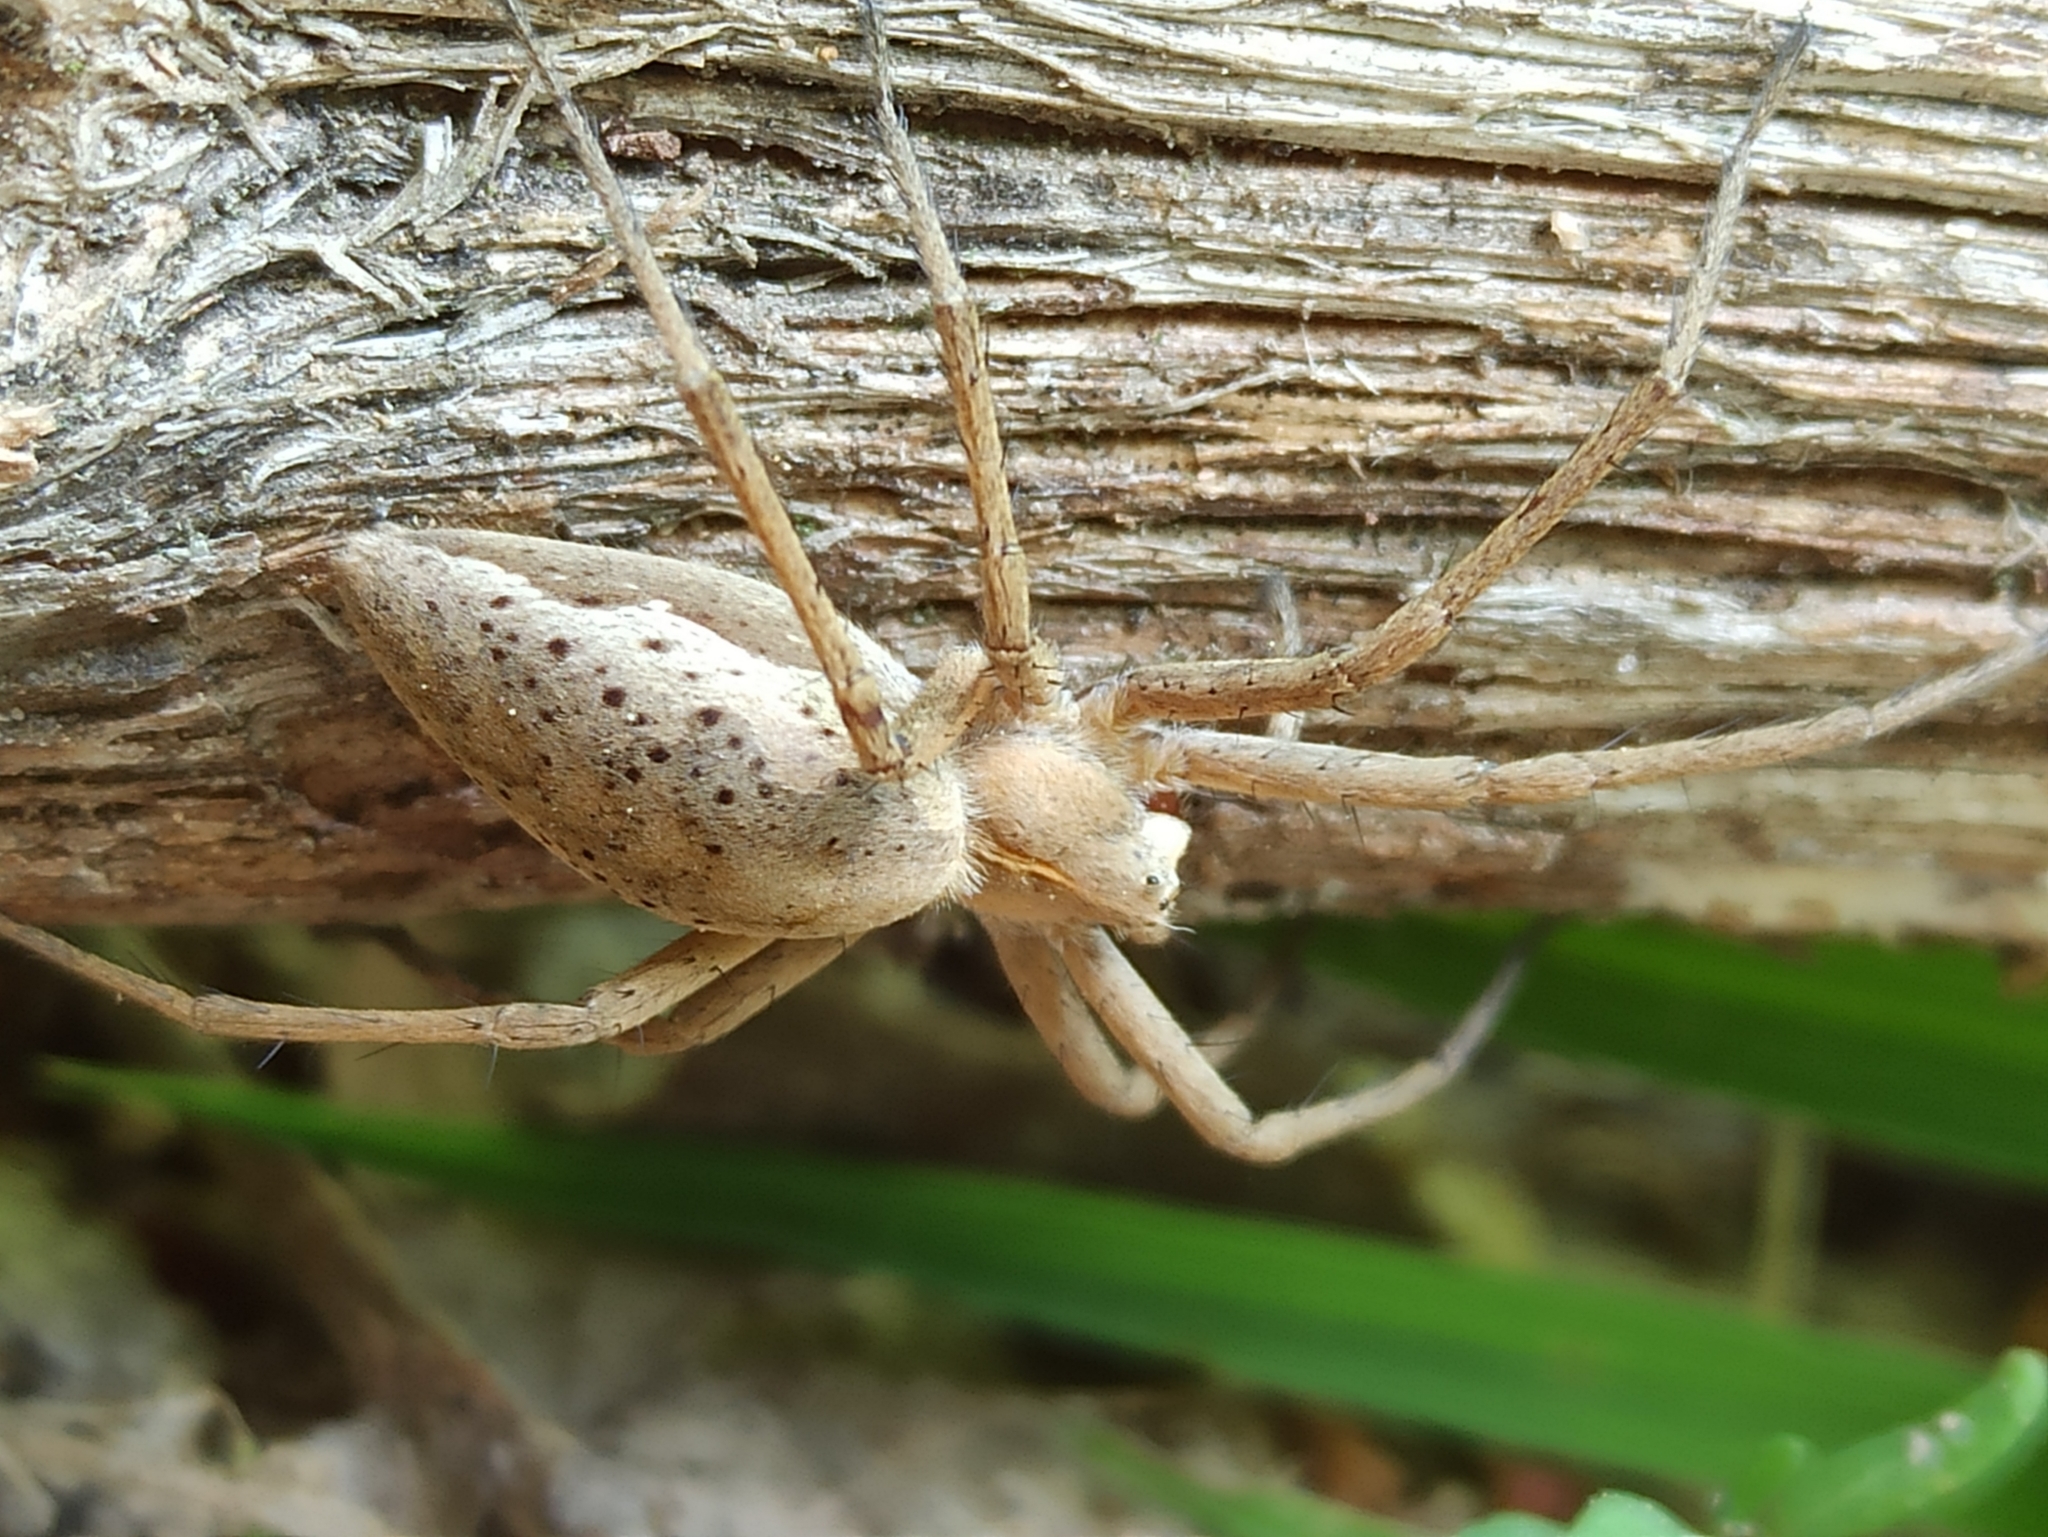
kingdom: Animalia
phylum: Arthropoda
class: Arachnida
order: Araneae
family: Pisauridae
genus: Pisaura
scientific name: Pisaura mirabilis
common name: Tent spider
